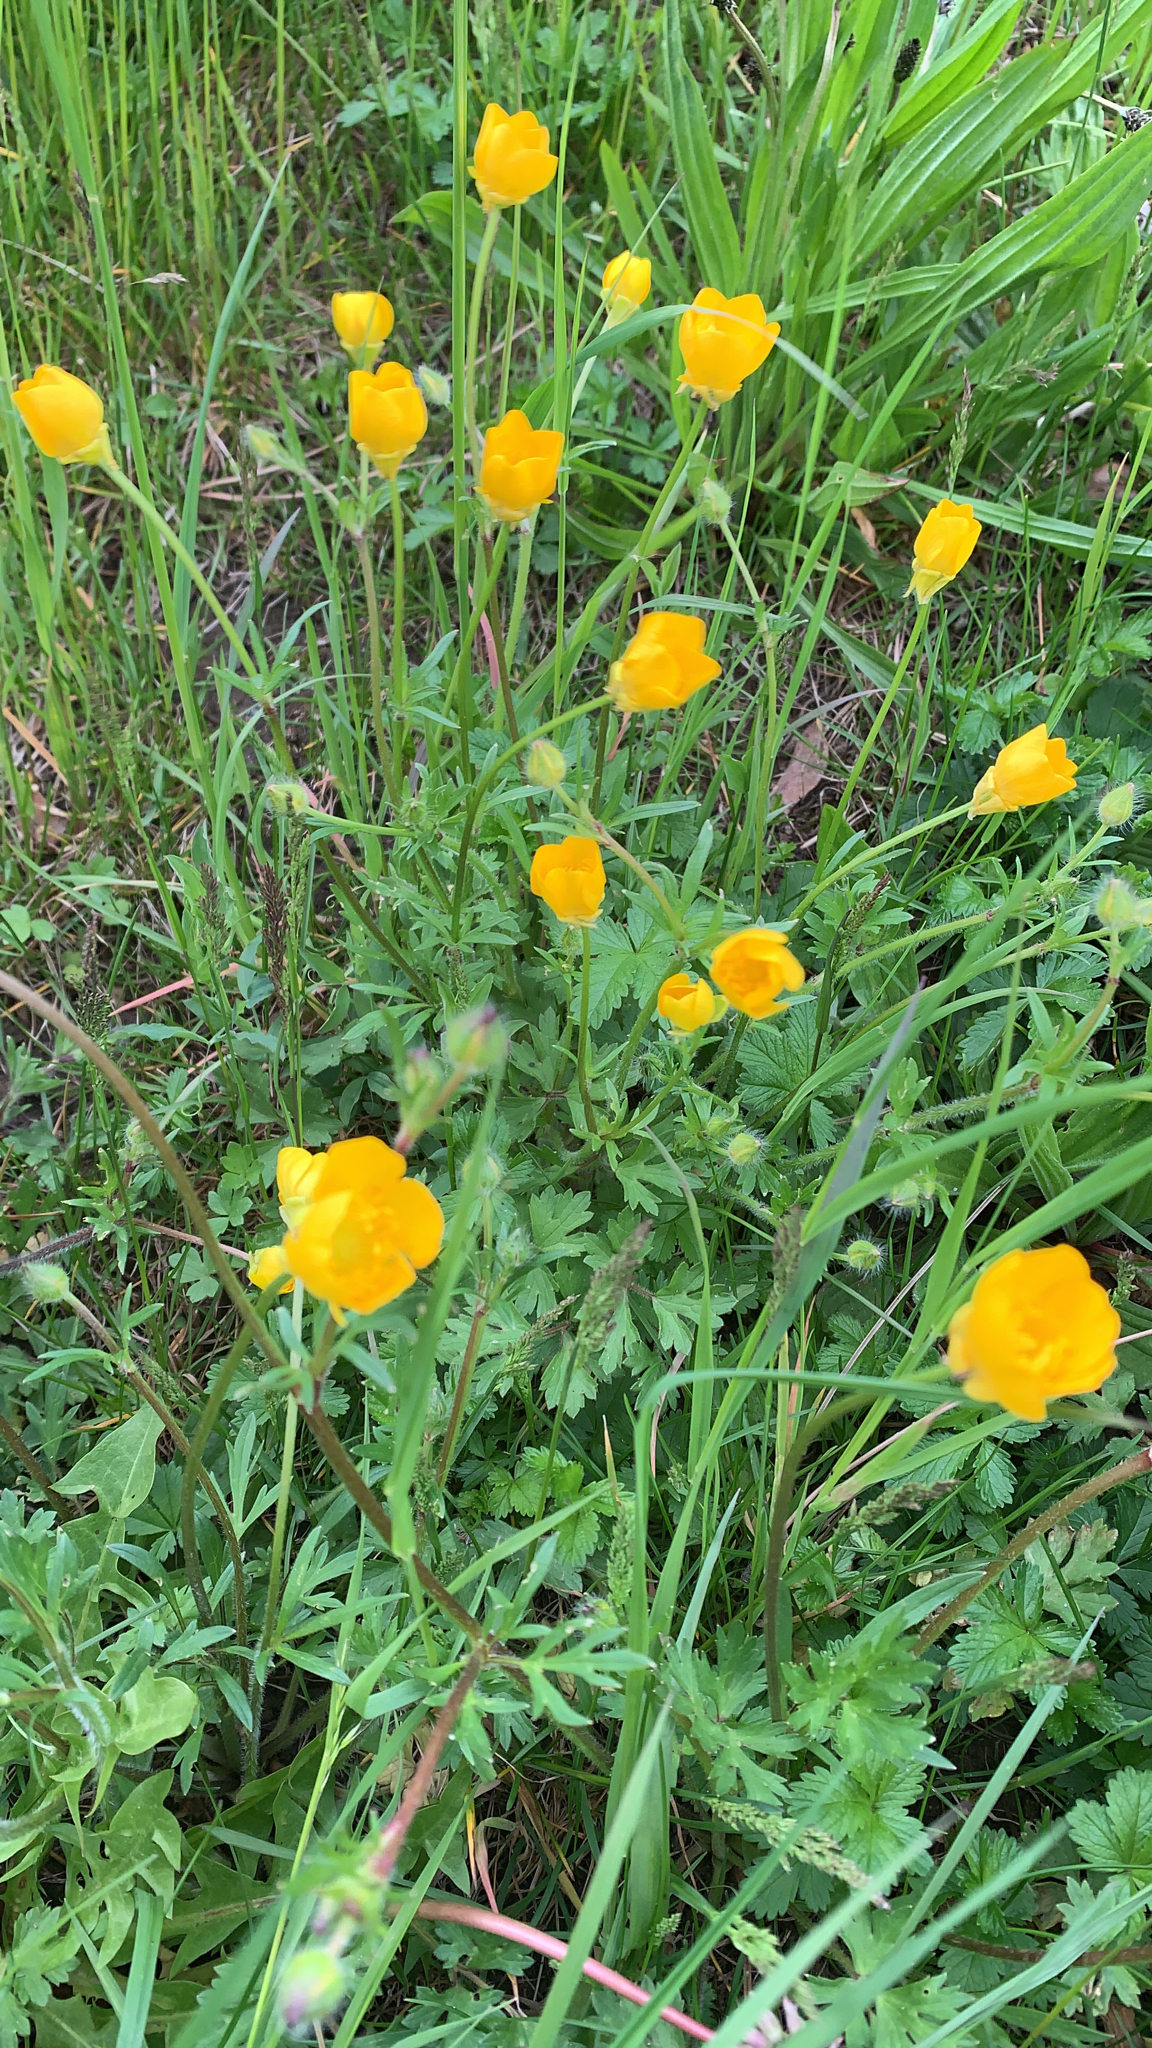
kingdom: Plantae
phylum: Tracheophyta
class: Magnoliopsida
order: Ranunculales
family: Ranunculaceae
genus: Ranunculus
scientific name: Ranunculus bulbosus
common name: Bulbous buttercup
